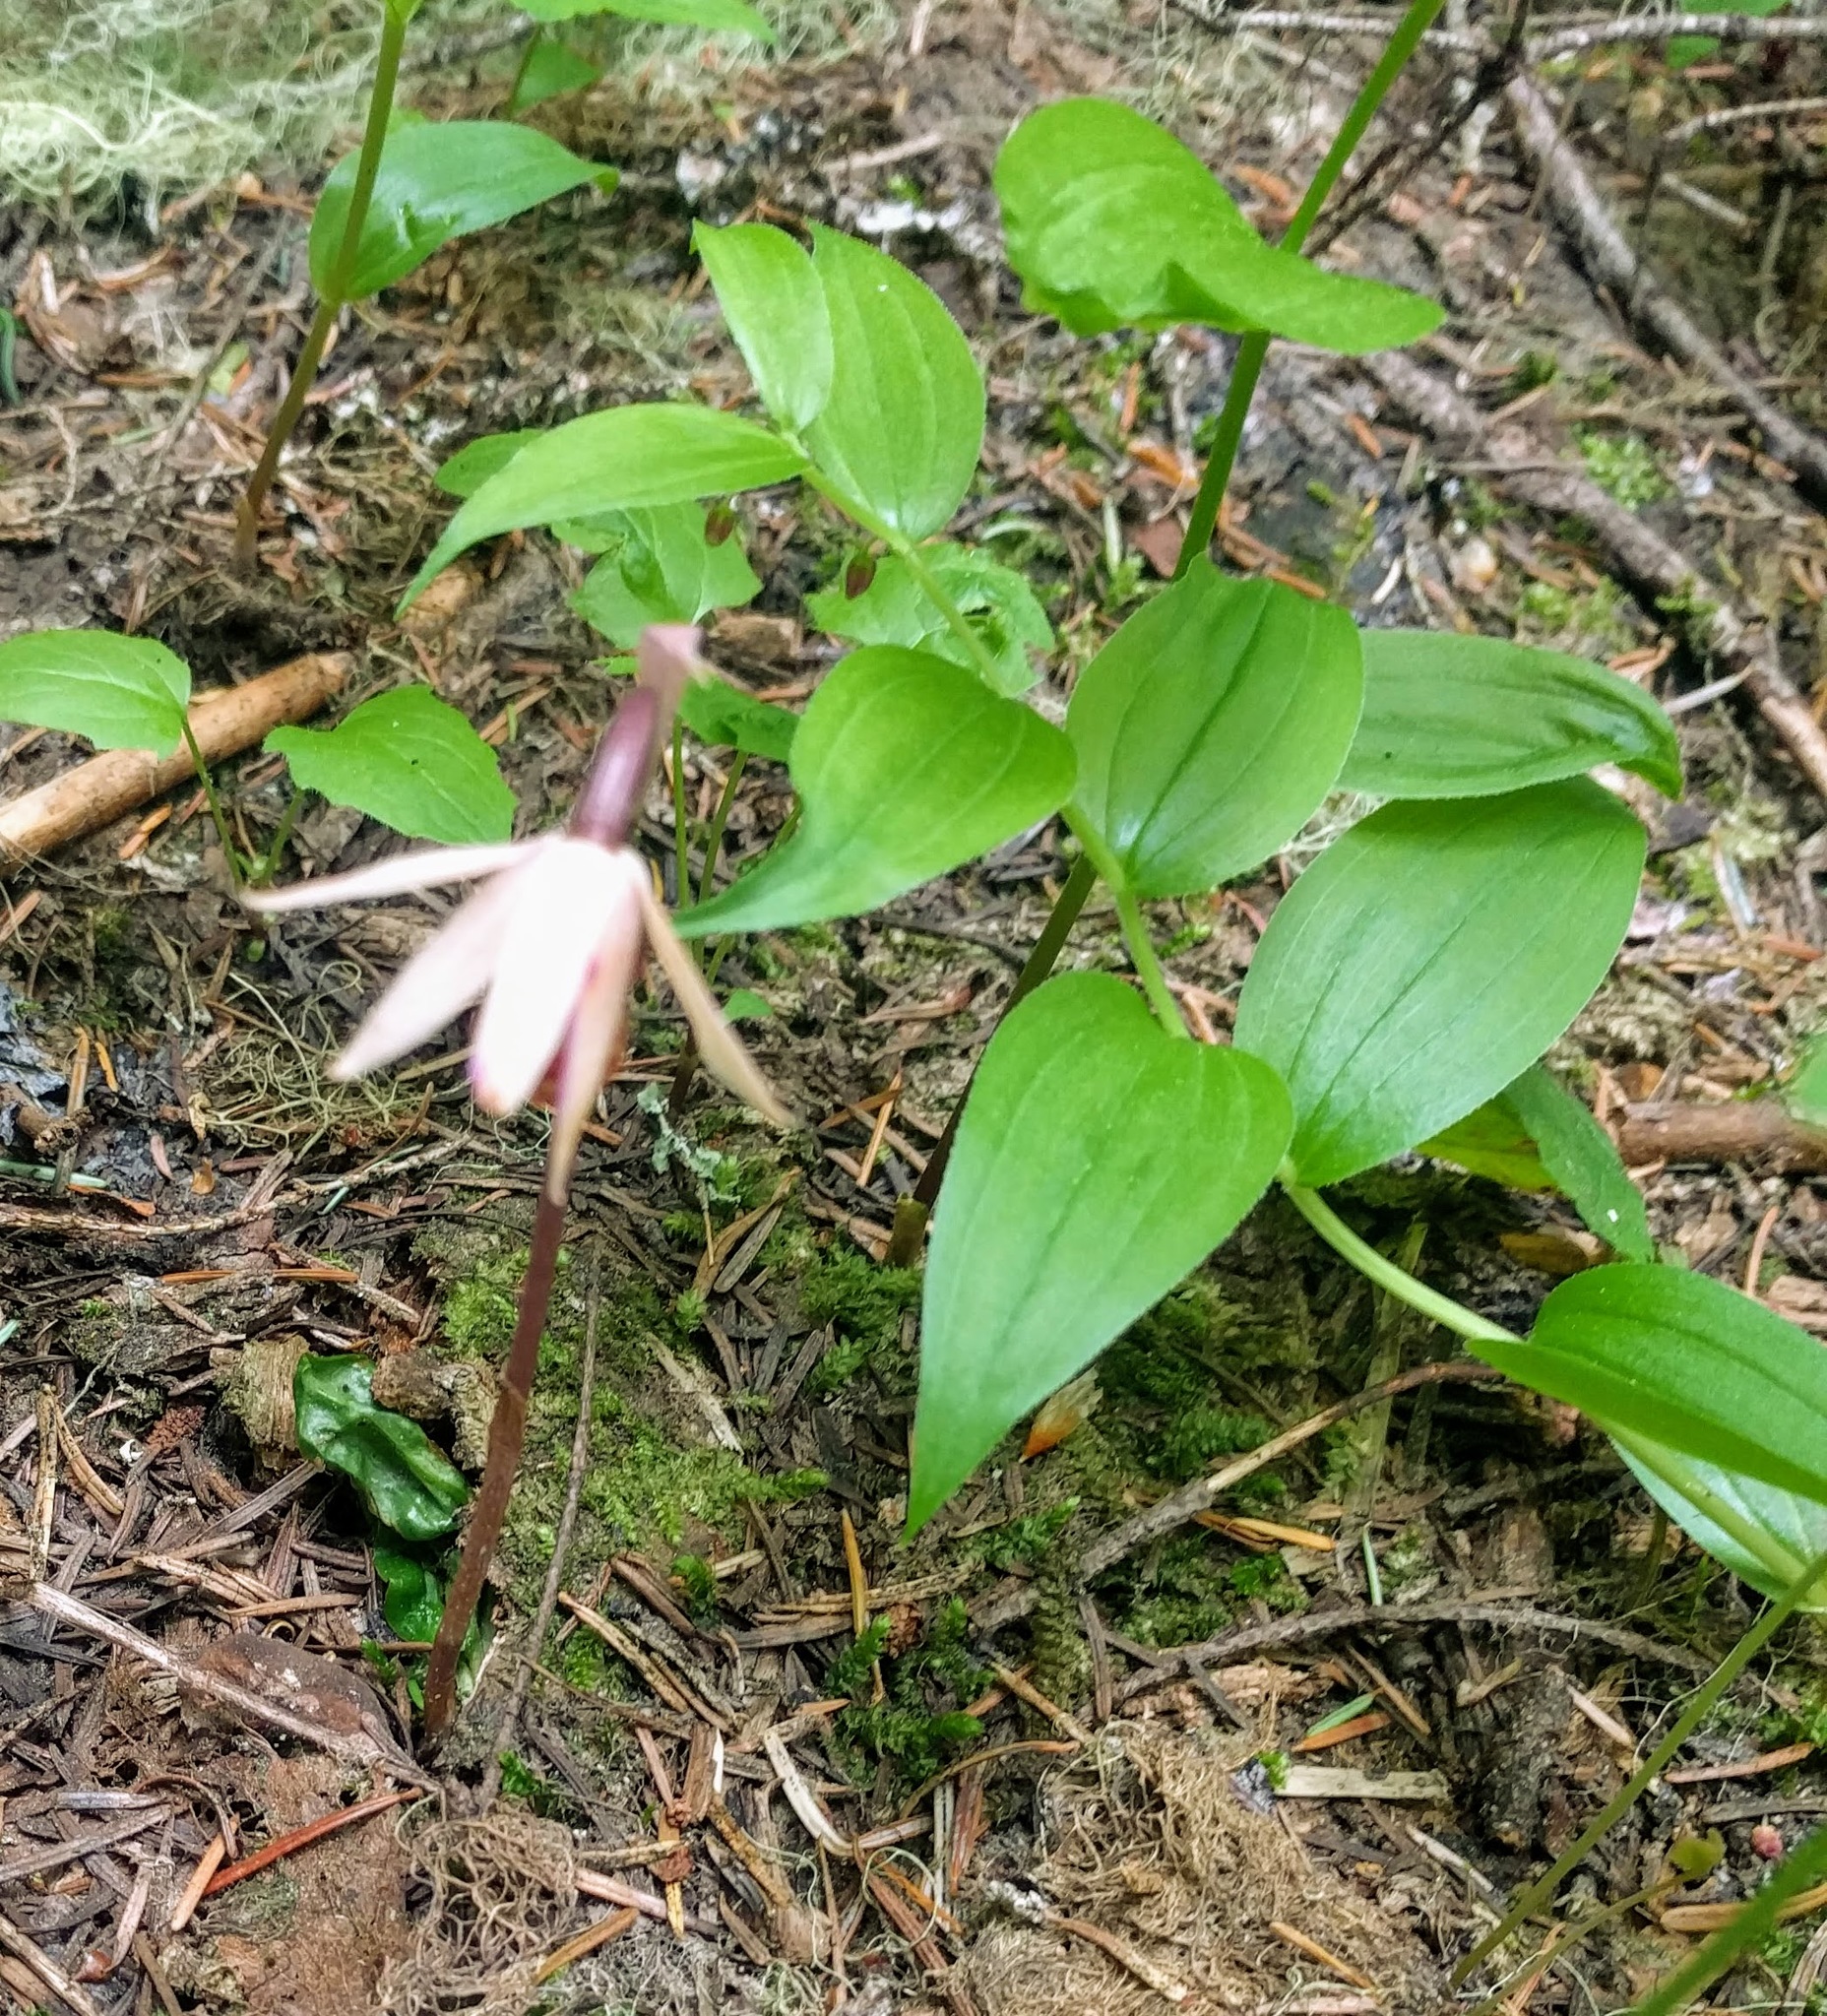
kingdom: Plantae
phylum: Tracheophyta
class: Liliopsida
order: Asparagales
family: Orchidaceae
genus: Calypso
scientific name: Calypso bulbosa
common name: Calypso
